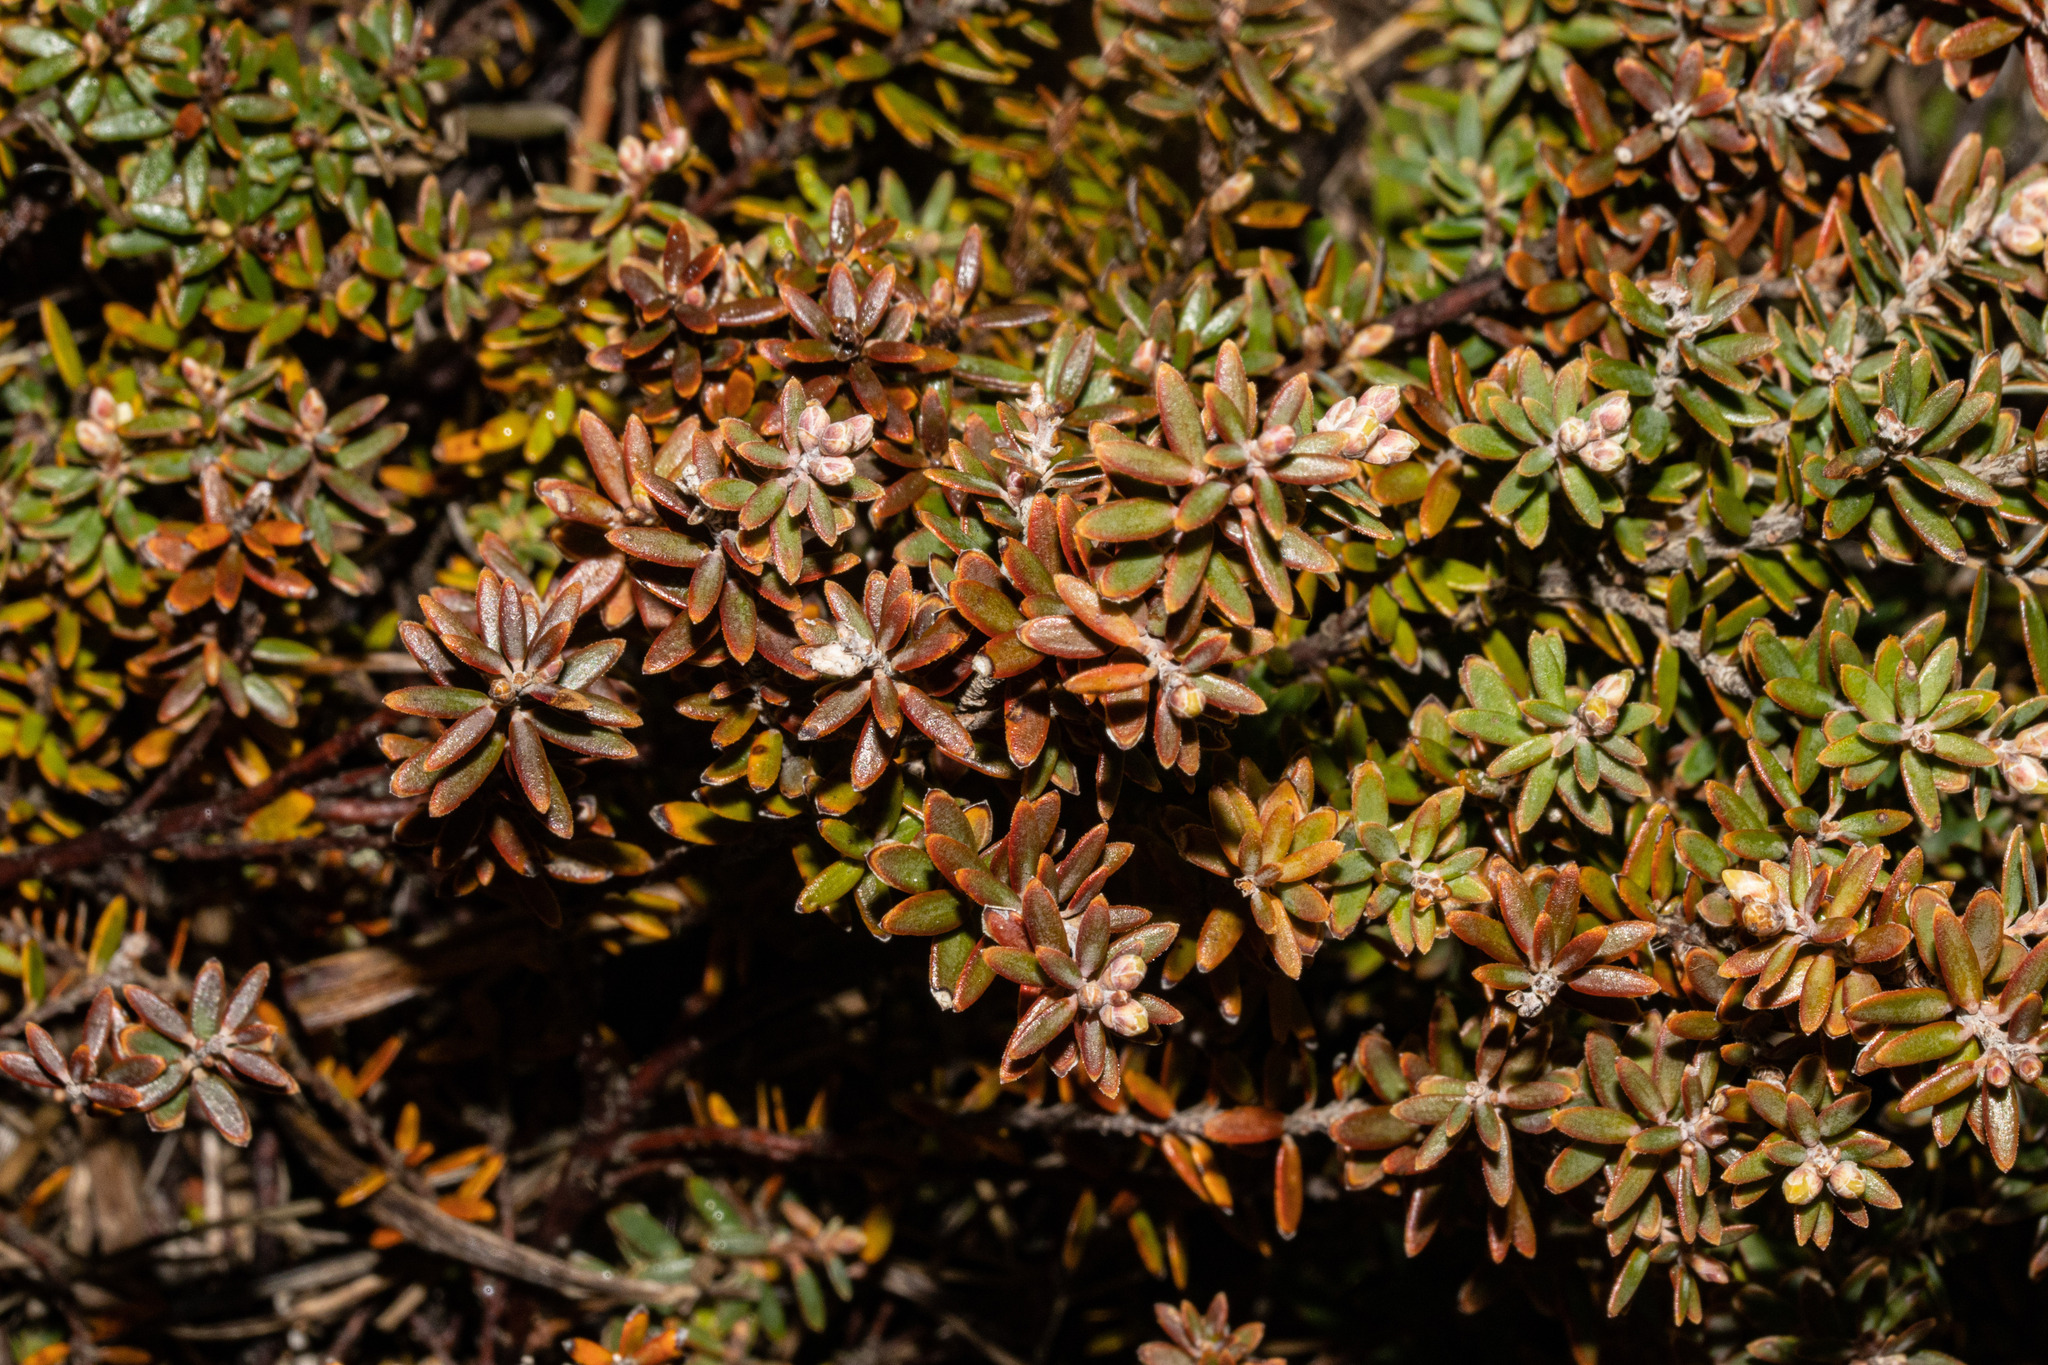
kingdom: Plantae
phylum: Tracheophyta
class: Magnoliopsida
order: Ericales
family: Ericaceae
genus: Acrothamnus
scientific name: Acrothamnus colensoi
